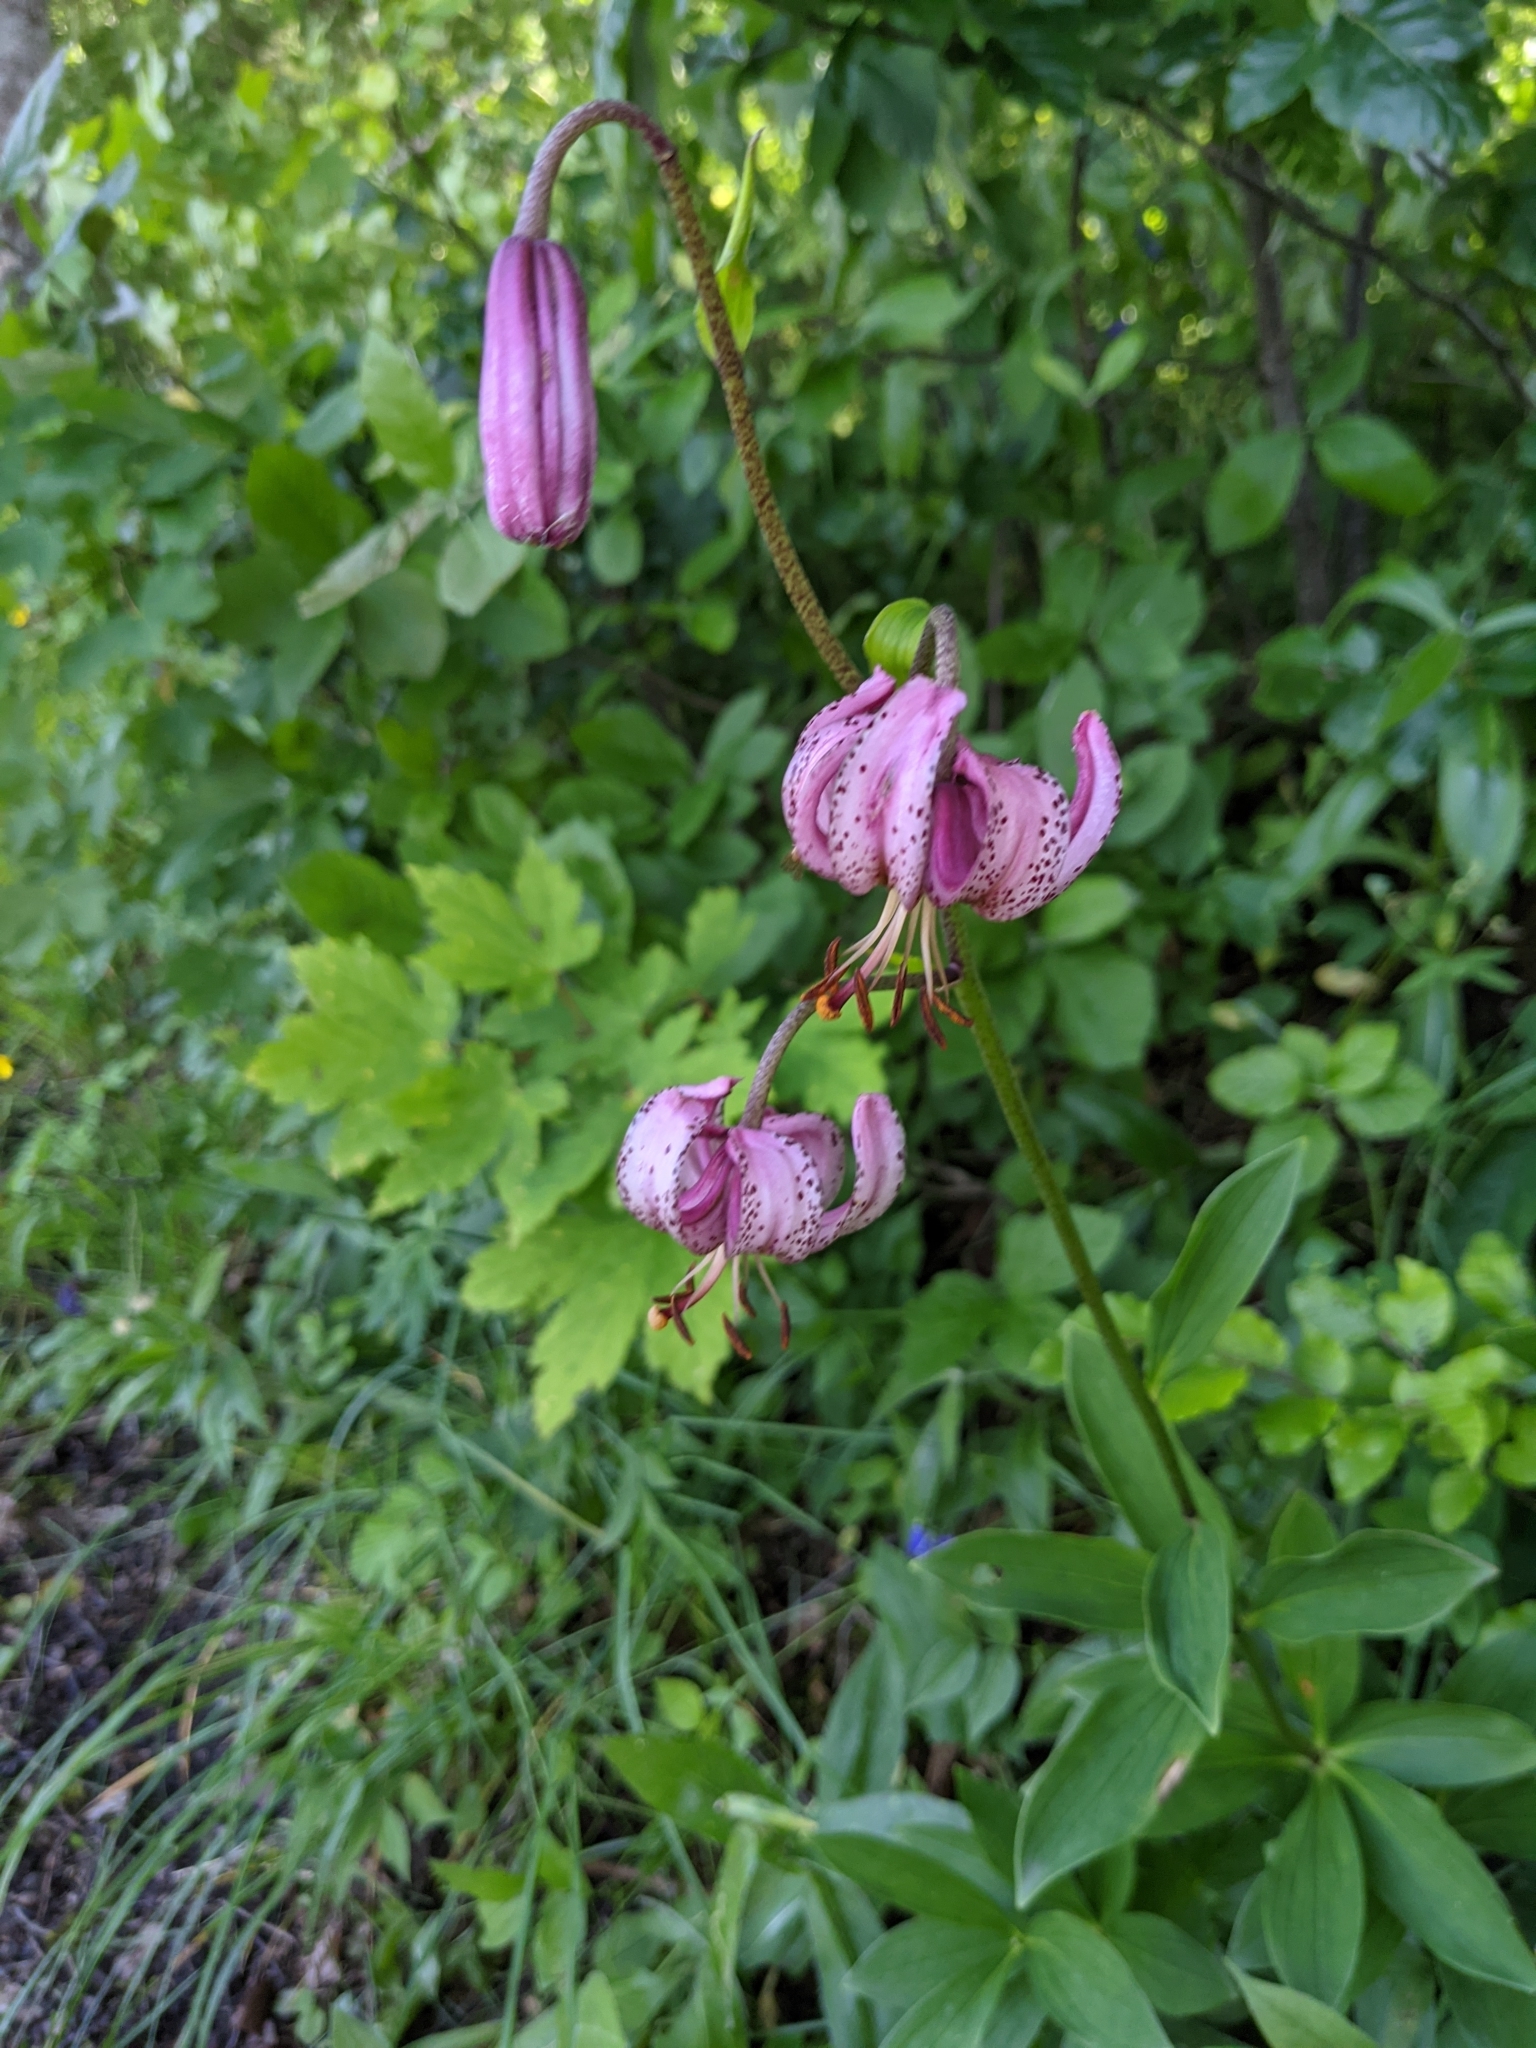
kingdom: Plantae
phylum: Tracheophyta
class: Liliopsida
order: Liliales
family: Liliaceae
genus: Lilium
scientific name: Lilium martagon
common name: Martagon lily
